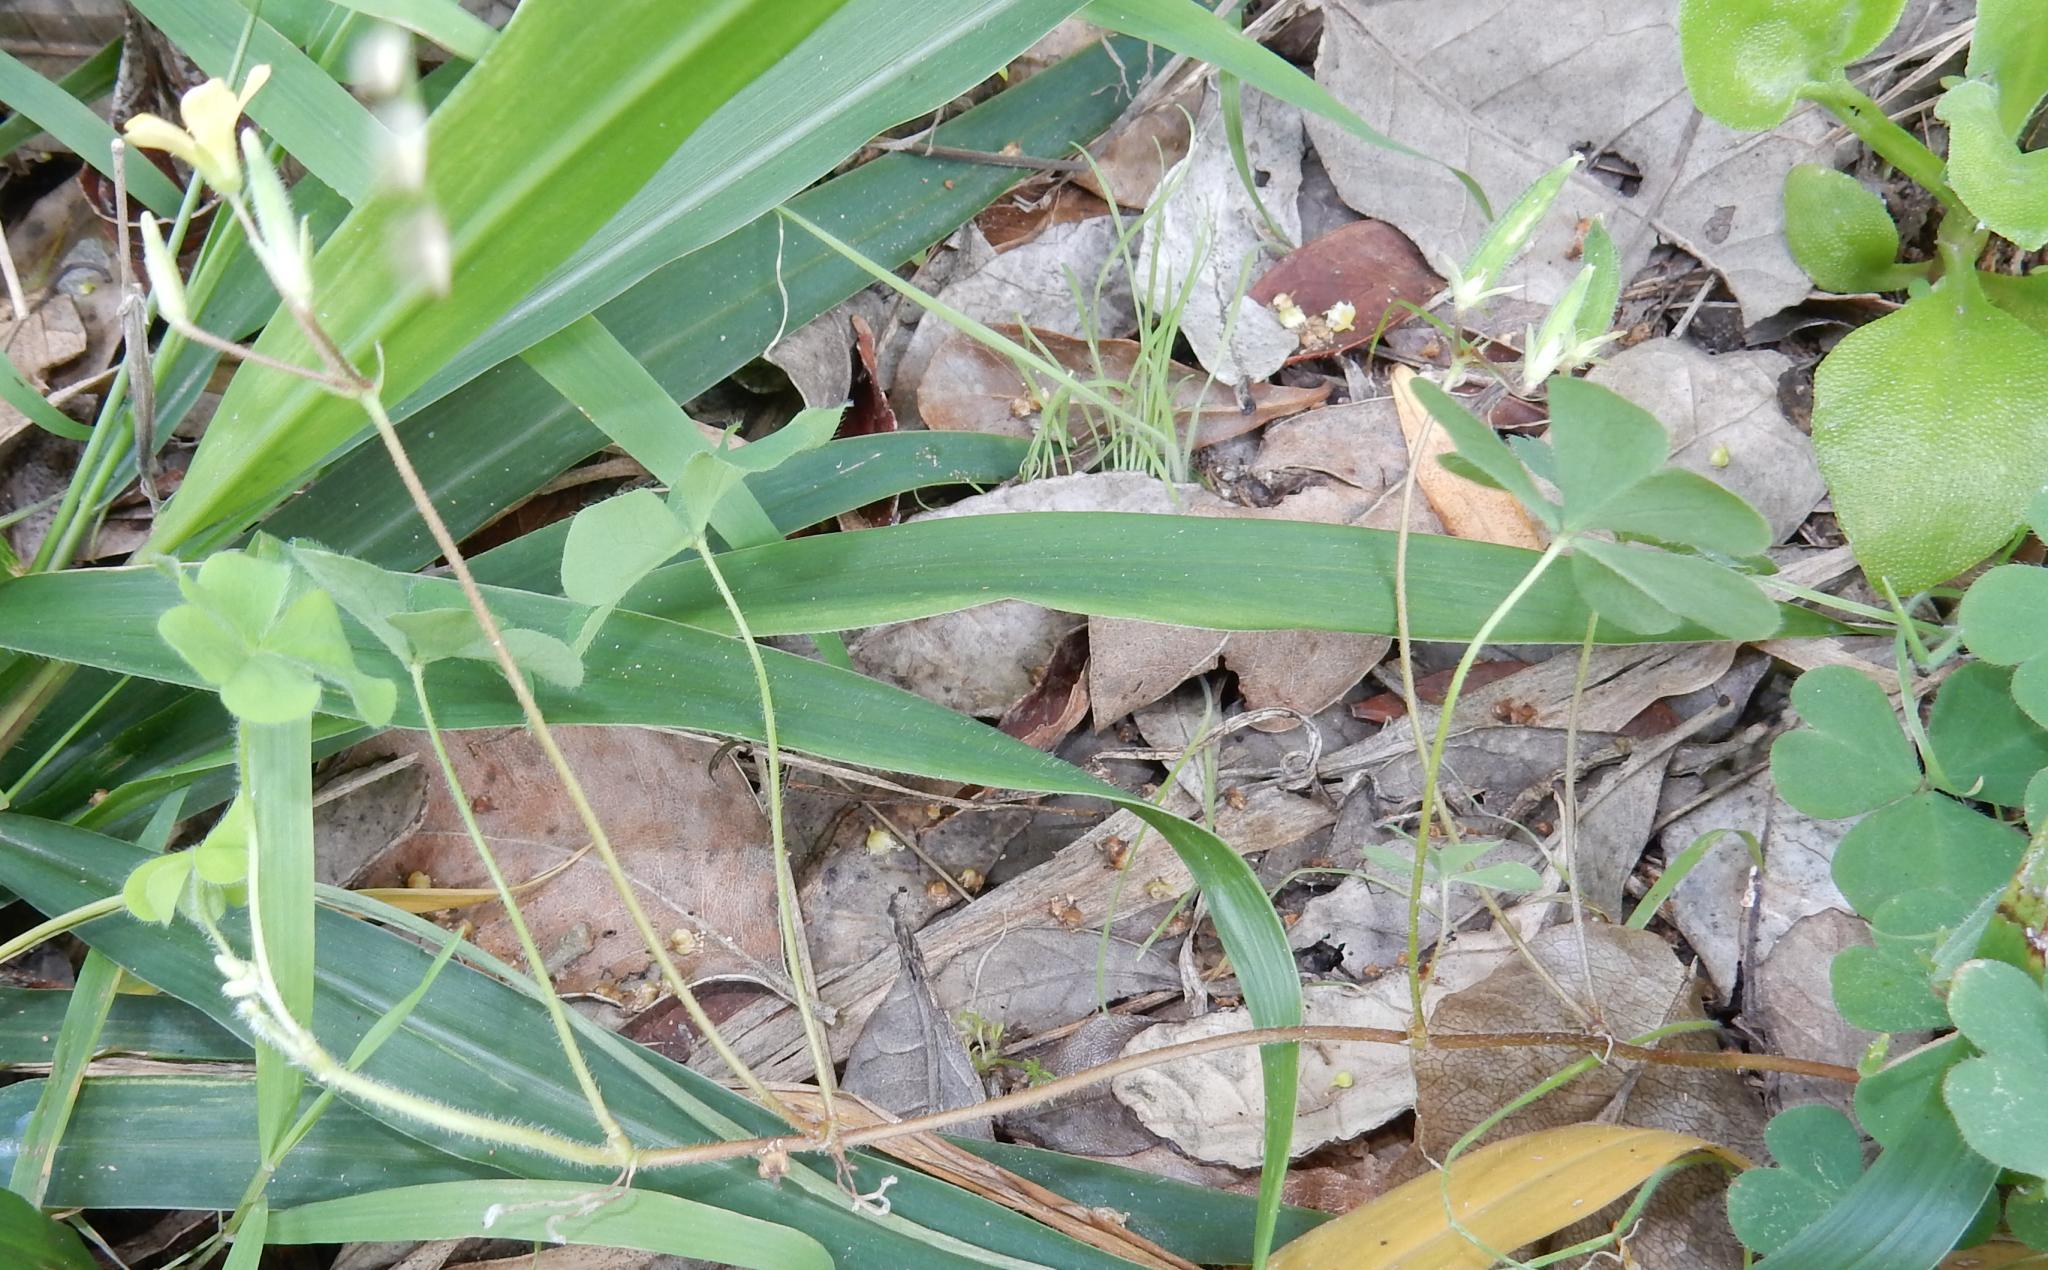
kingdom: Plantae
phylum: Tracheophyta
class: Magnoliopsida
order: Oxalidales
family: Oxalidaceae
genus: Oxalis
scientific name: Oxalis corniculata
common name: Procumbent yellow-sorrel
